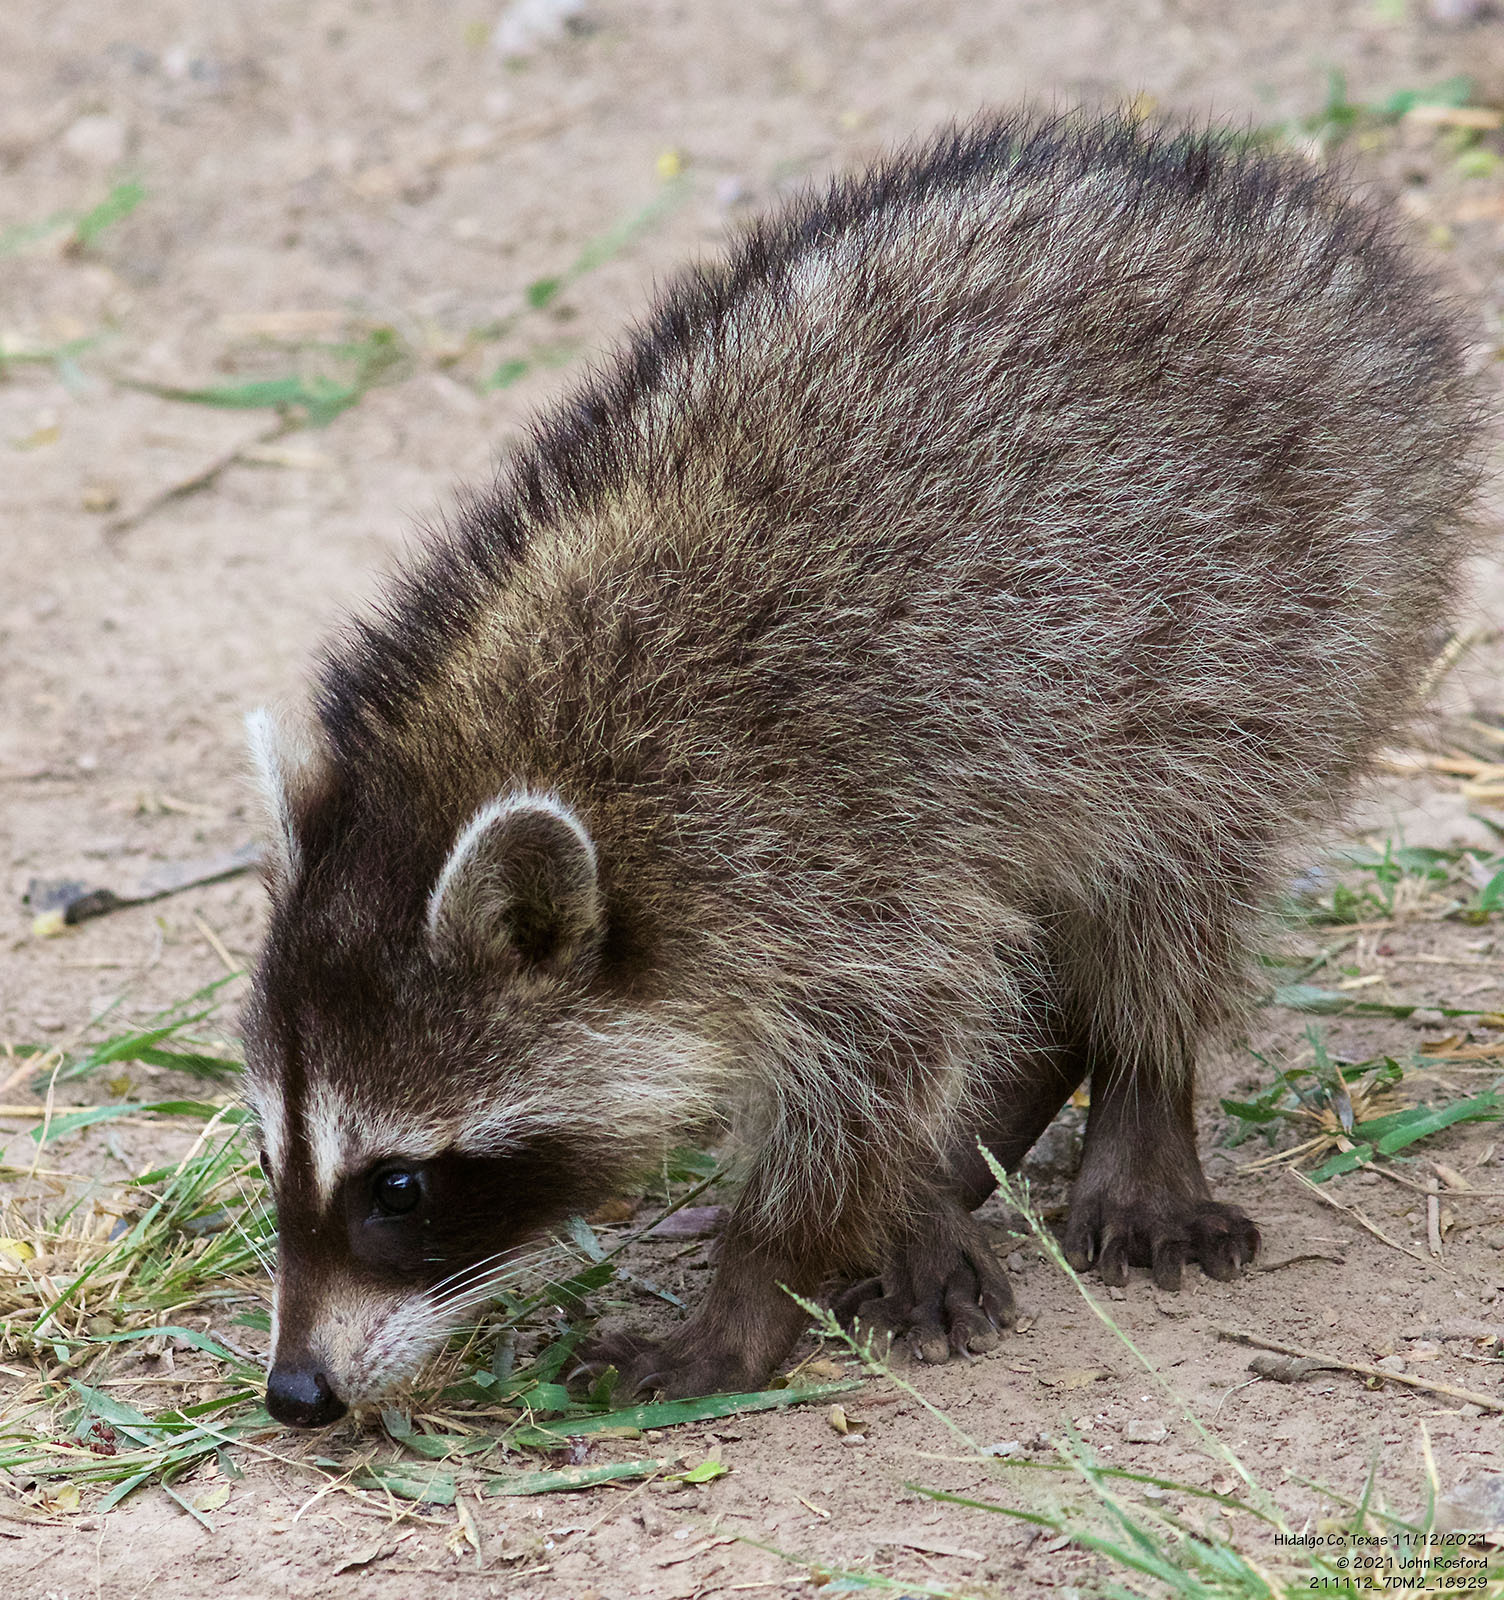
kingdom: Animalia
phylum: Chordata
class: Mammalia
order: Carnivora
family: Procyonidae
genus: Procyon
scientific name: Procyon lotor
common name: Raccoon
